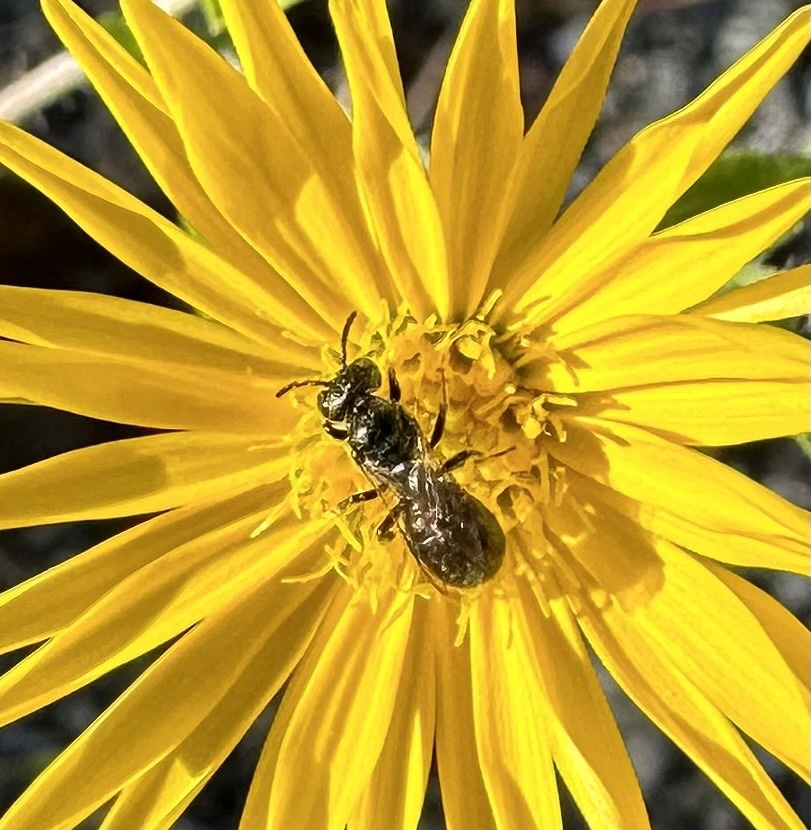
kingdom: Animalia
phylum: Arthropoda
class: Insecta
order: Hymenoptera
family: Apidae
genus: Ceratina
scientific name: Ceratina calcarata
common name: Spurred carpenter bee
